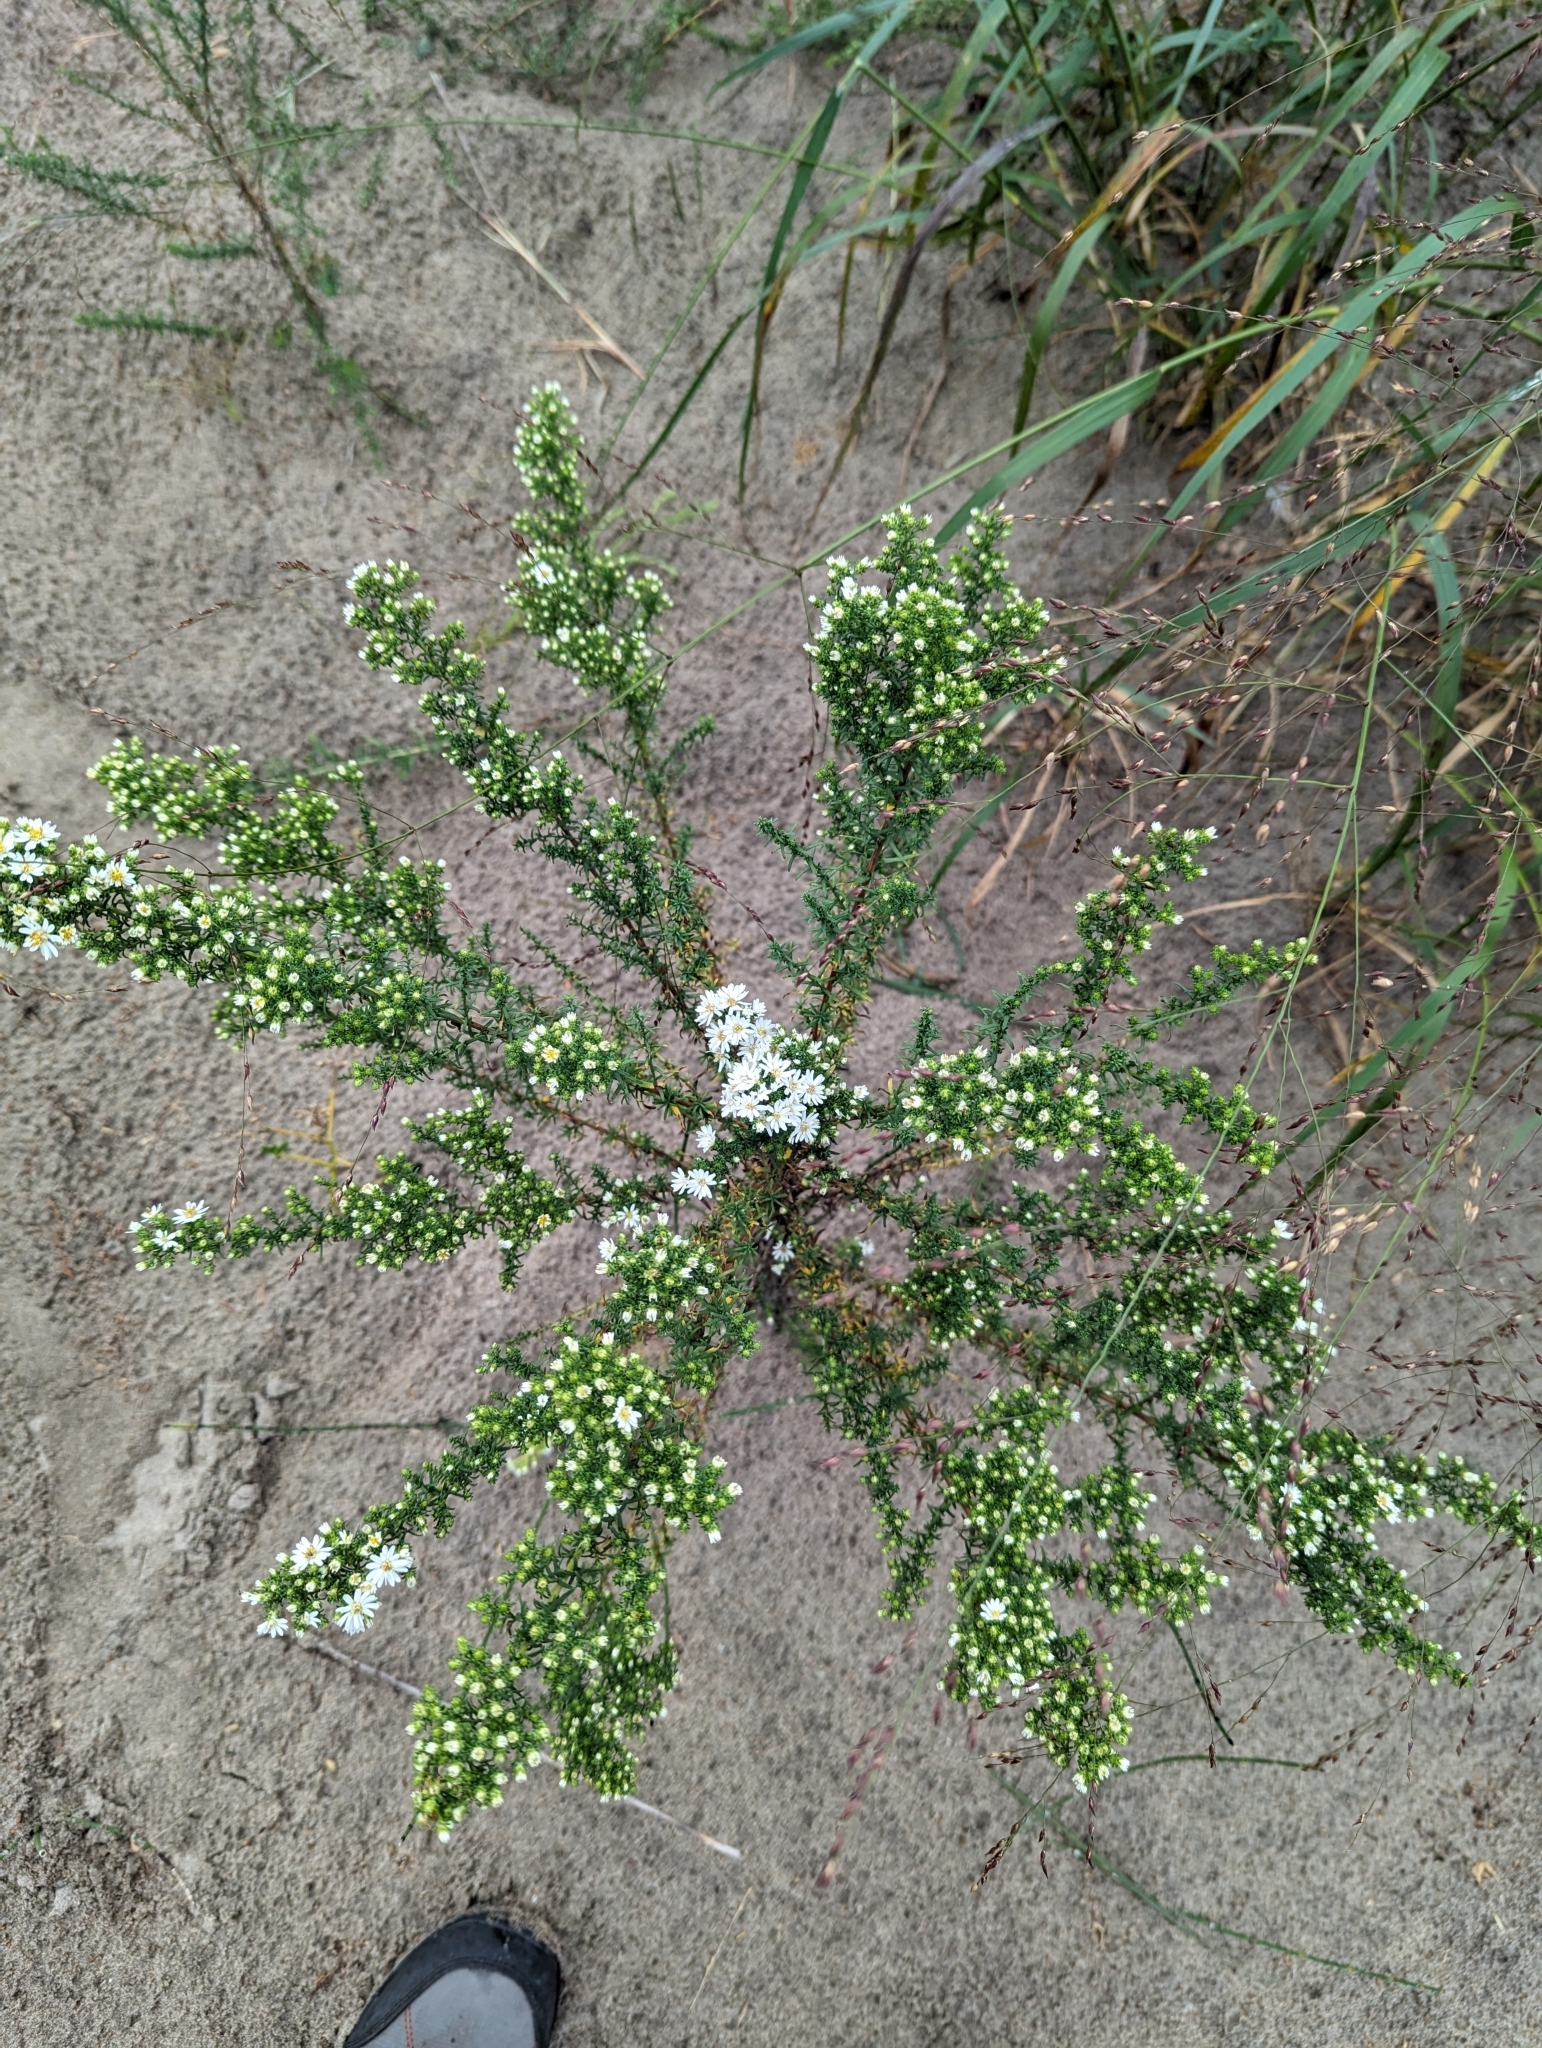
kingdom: Plantae
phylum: Tracheophyta
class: Magnoliopsida
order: Asterales
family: Asteraceae
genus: Symphyotrichum
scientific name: Symphyotrichum ericoides
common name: Heath aster
